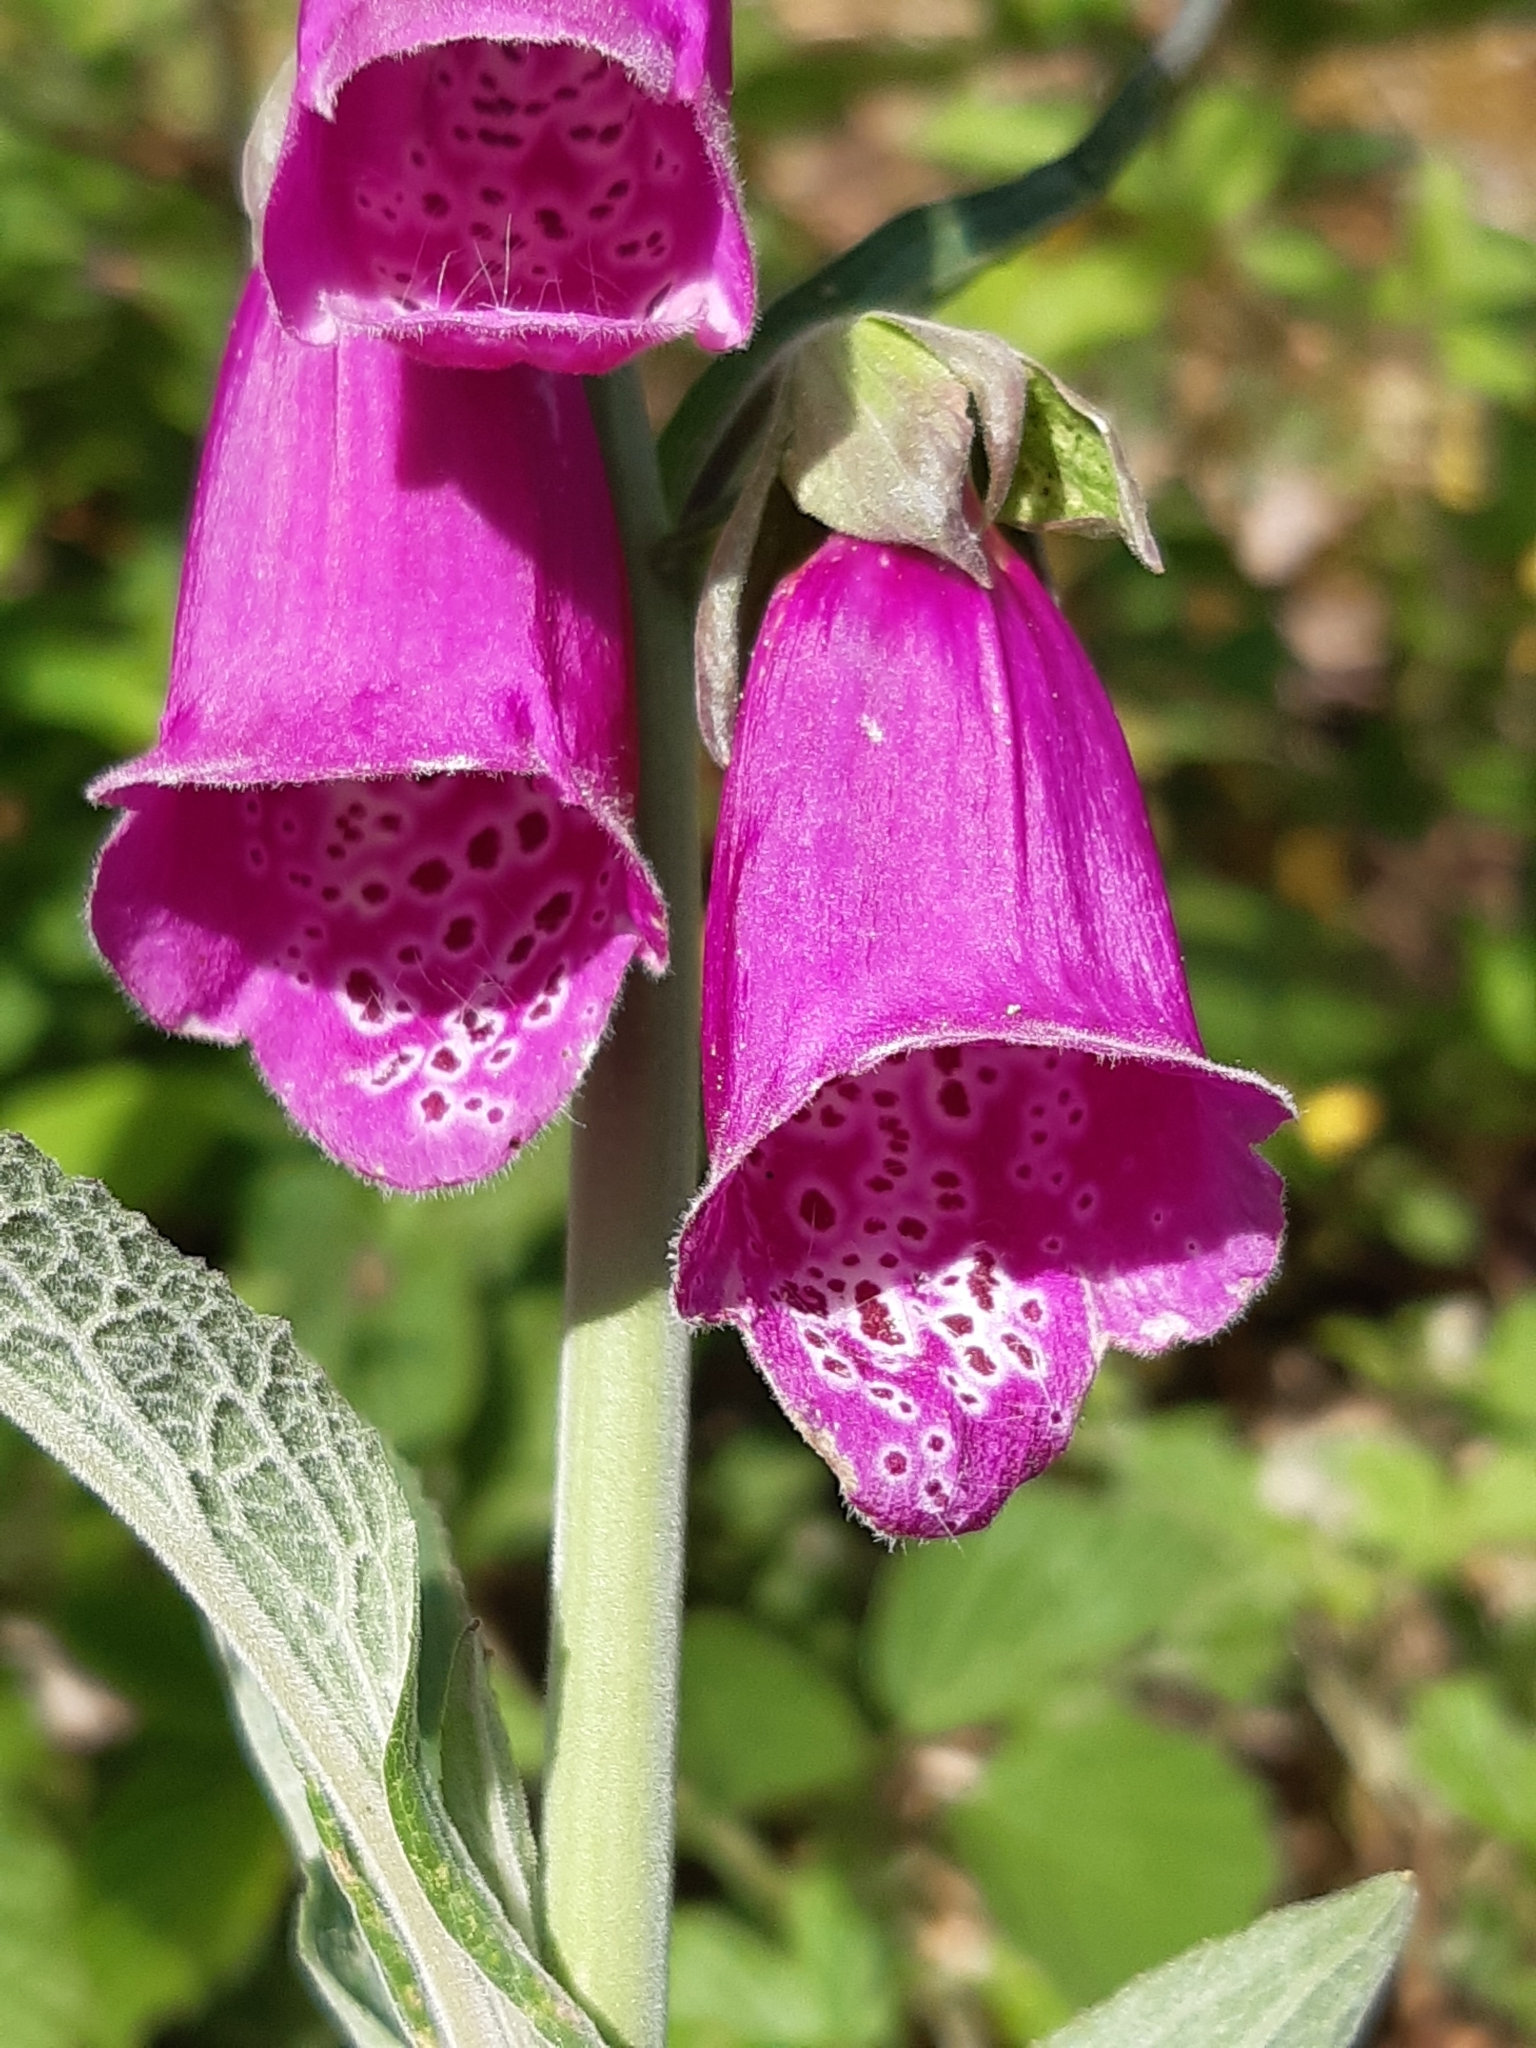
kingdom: Plantae
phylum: Tracheophyta
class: Magnoliopsida
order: Lamiales
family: Plantaginaceae
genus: Digitalis
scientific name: Digitalis purpurea
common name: Foxglove
